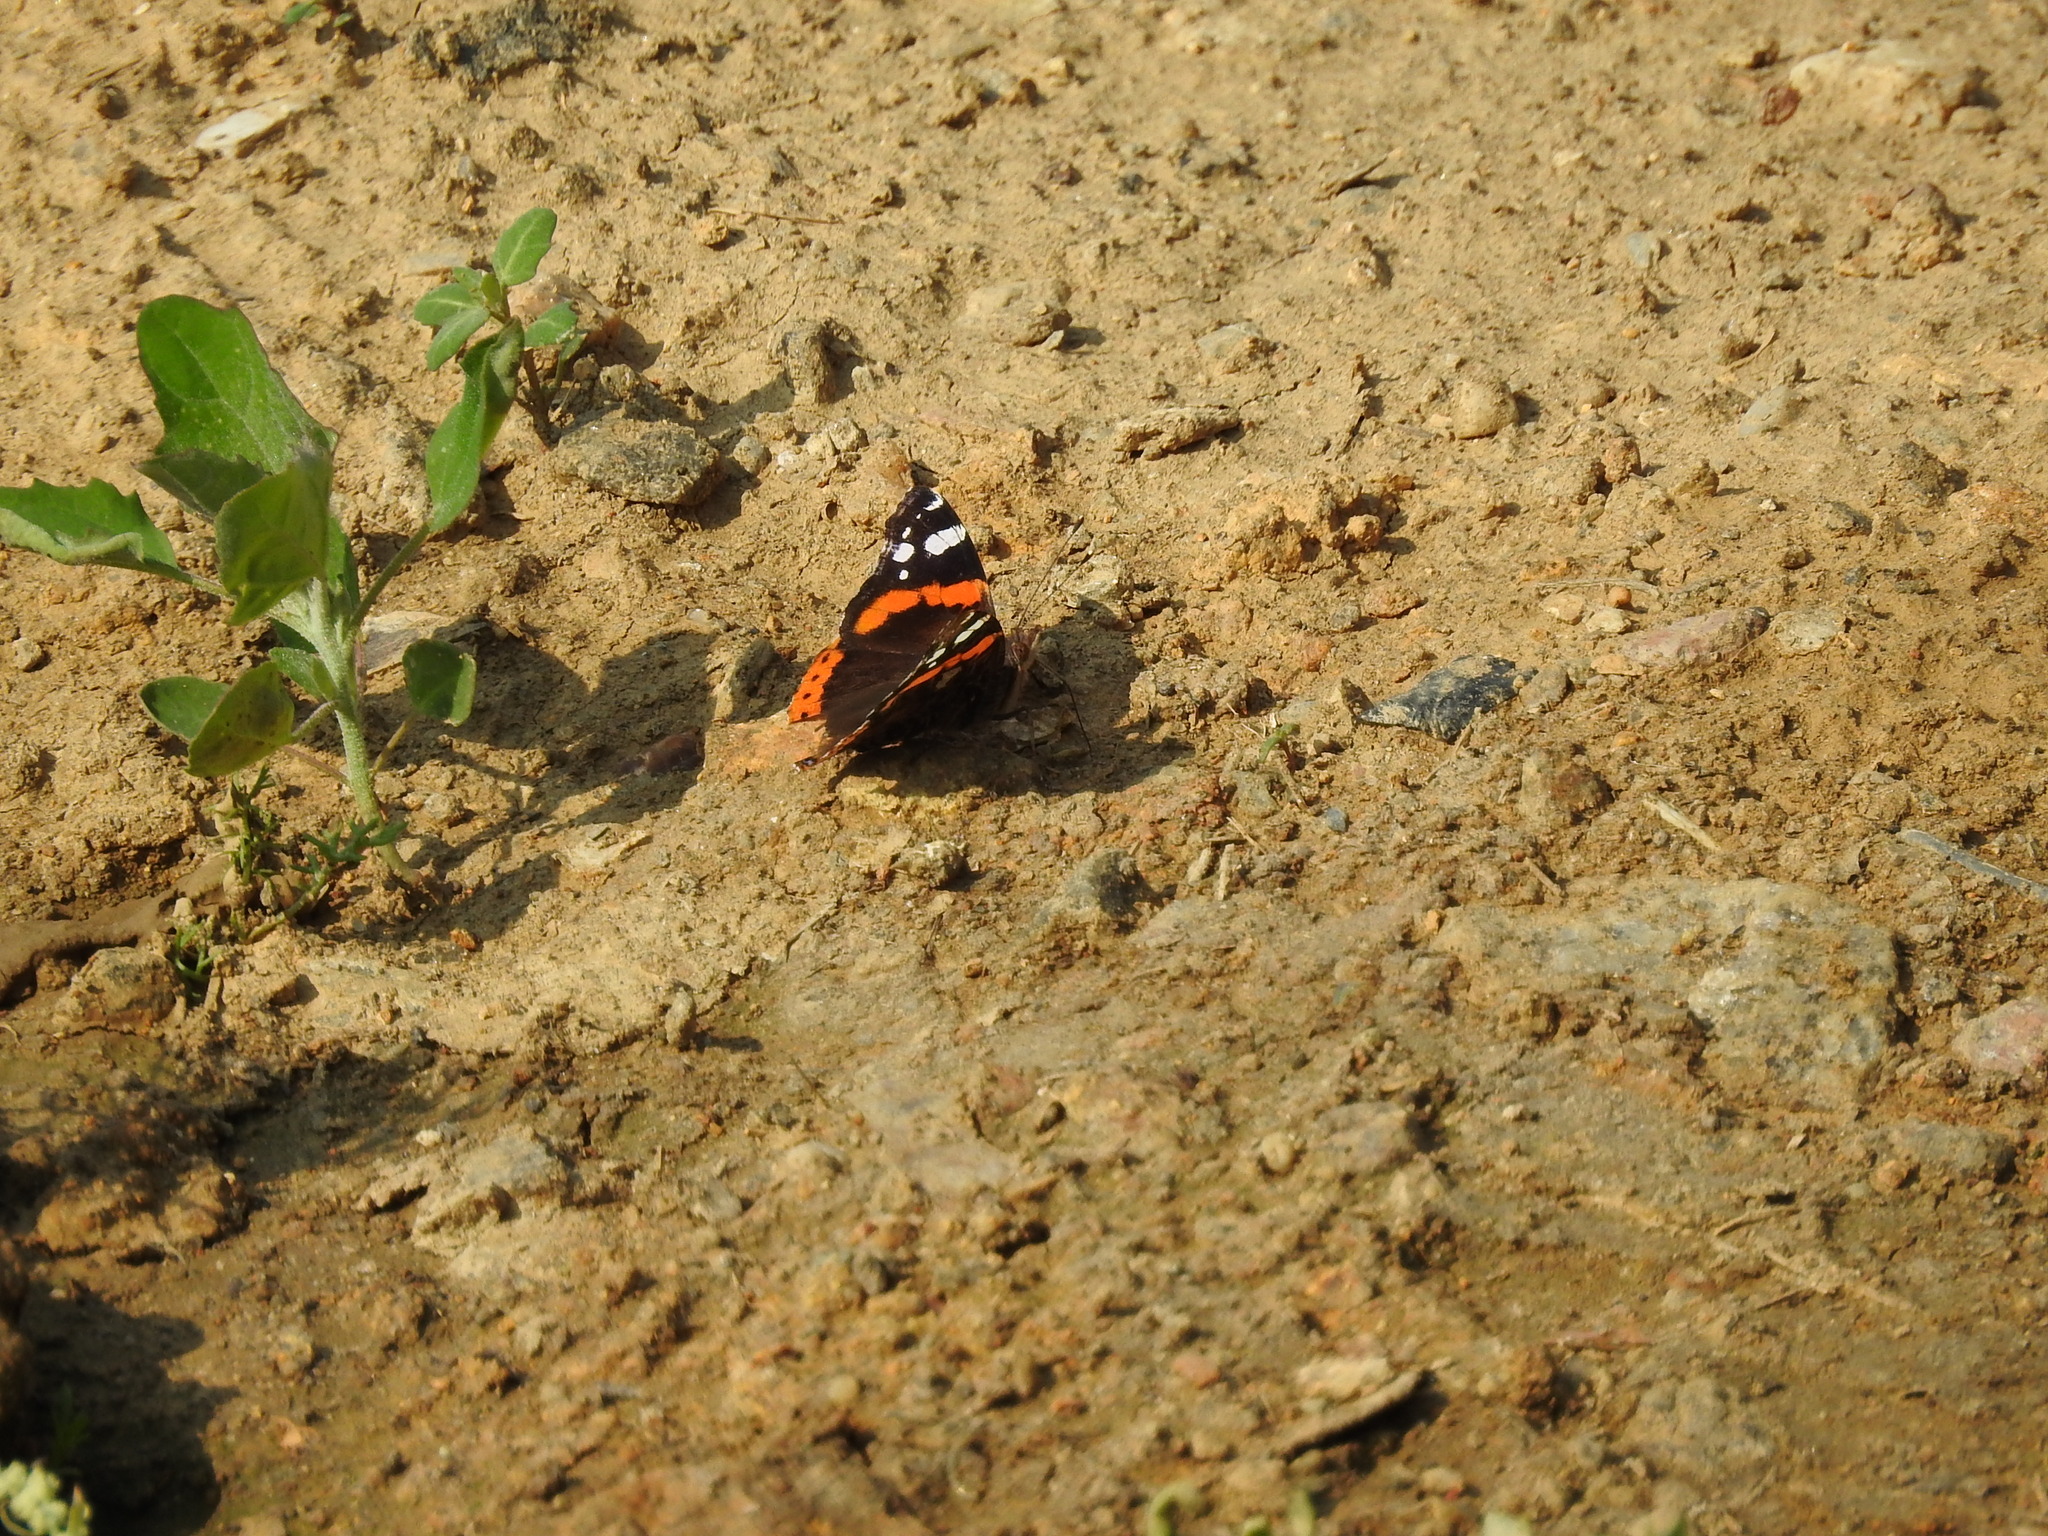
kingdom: Animalia
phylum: Arthropoda
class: Insecta
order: Lepidoptera
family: Nymphalidae
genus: Vanessa
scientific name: Vanessa atalanta
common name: Red admiral
